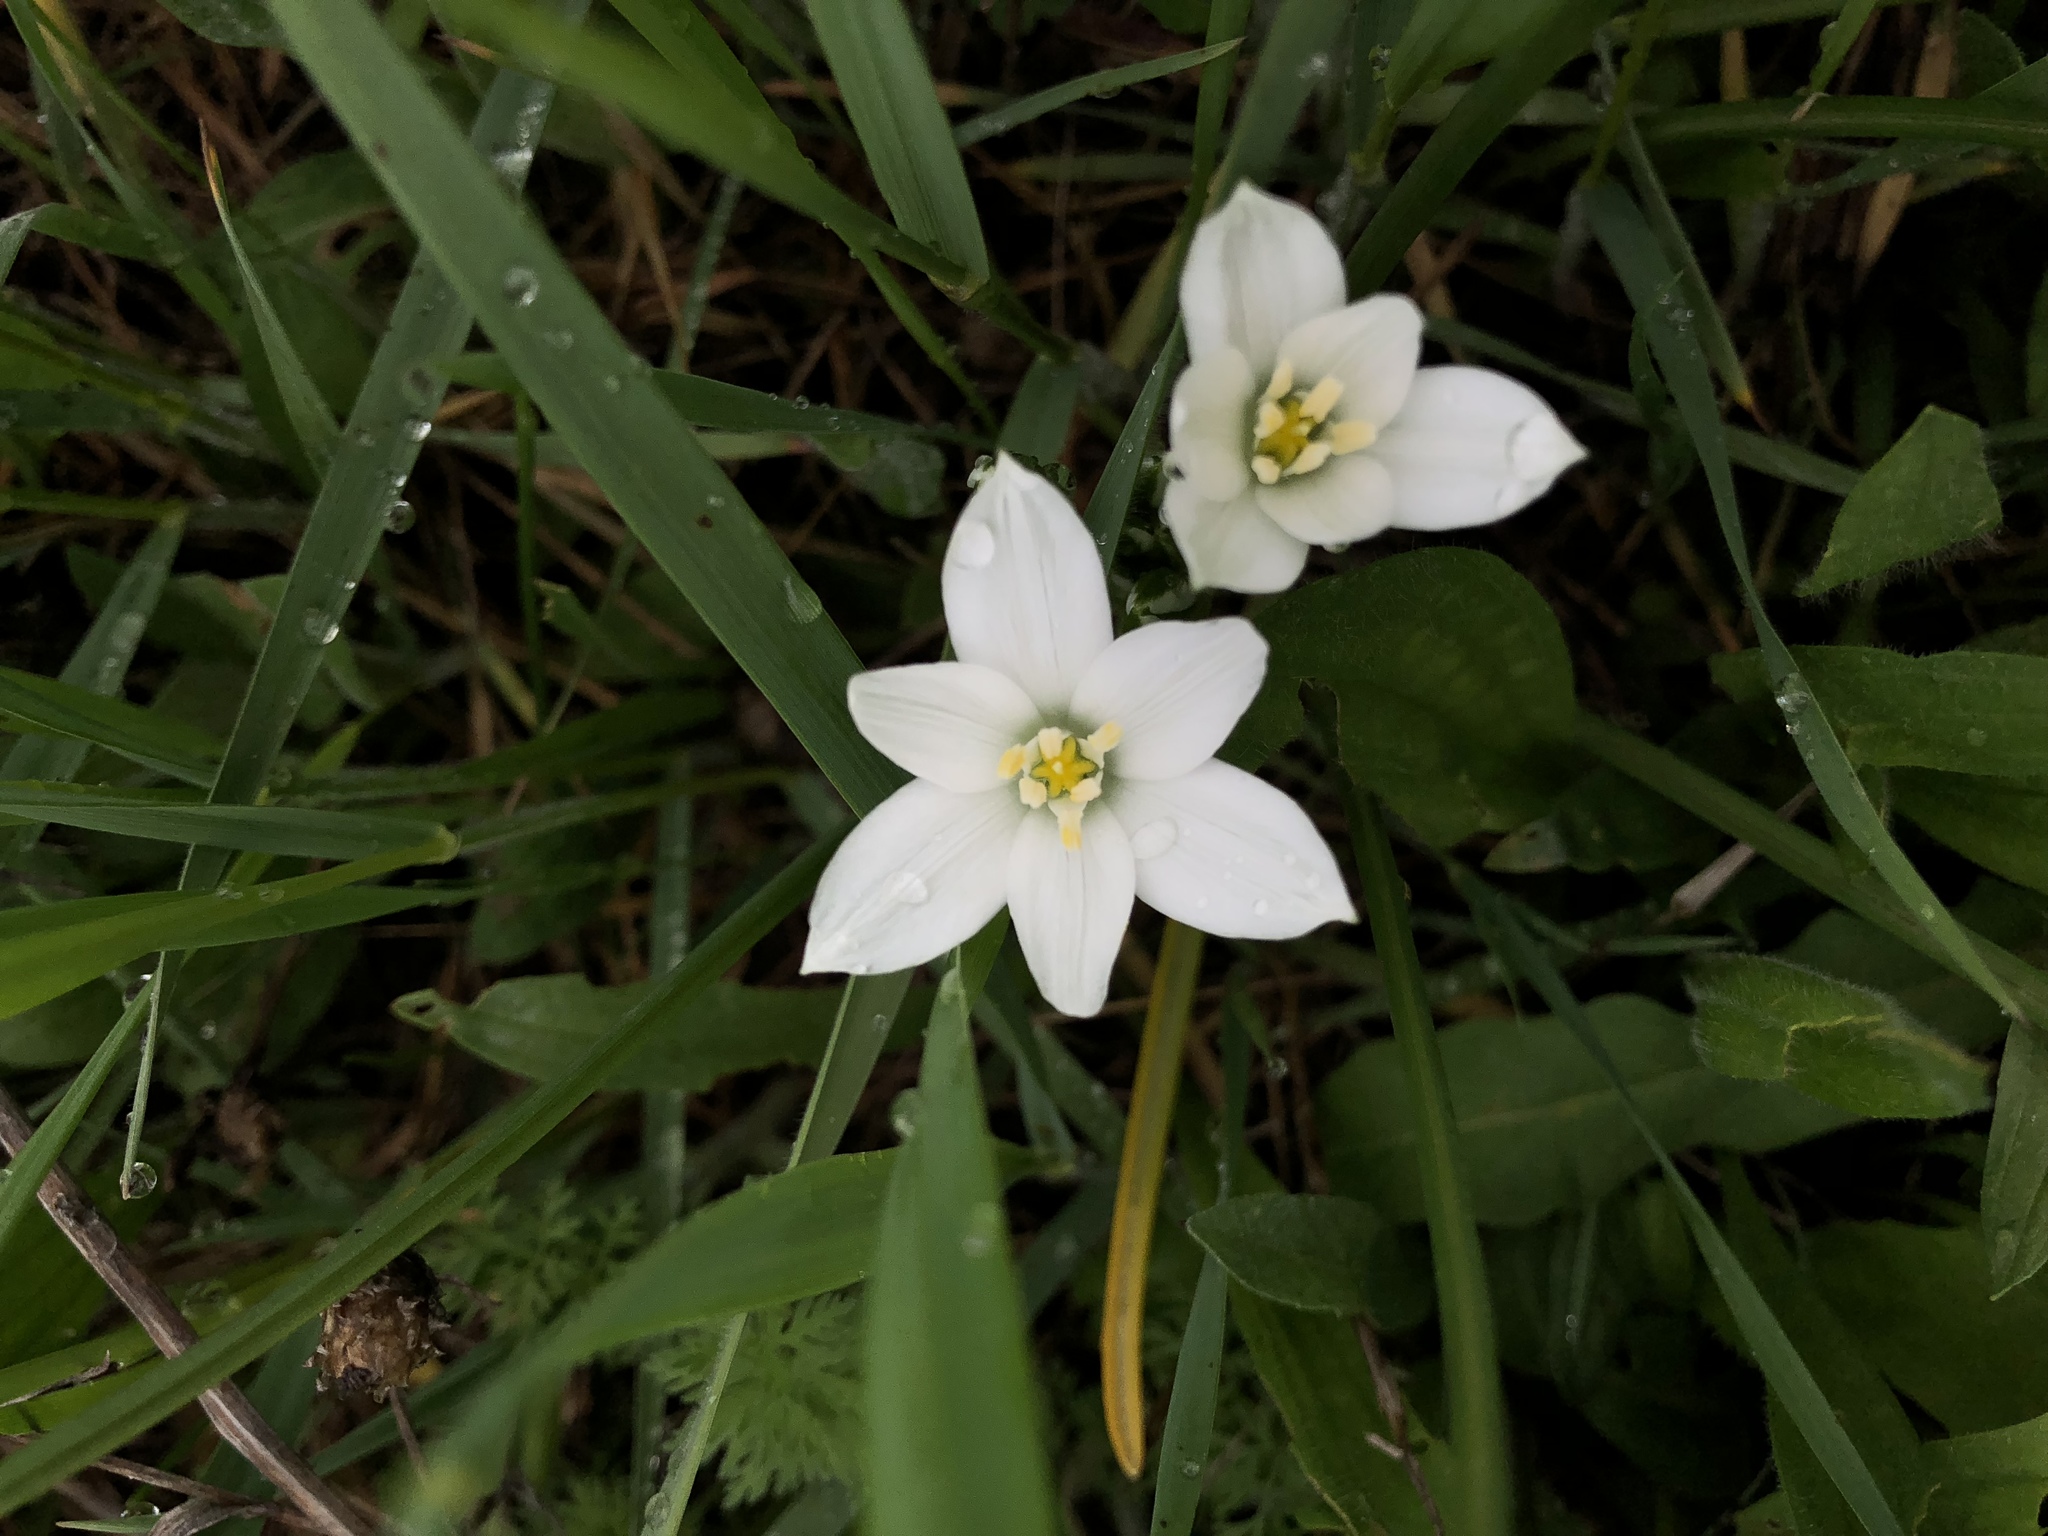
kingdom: Plantae
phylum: Tracheophyta
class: Liliopsida
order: Asparagales
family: Asparagaceae
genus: Ornithogalum
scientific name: Ornithogalum umbellatum
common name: Garden star-of-bethlehem
